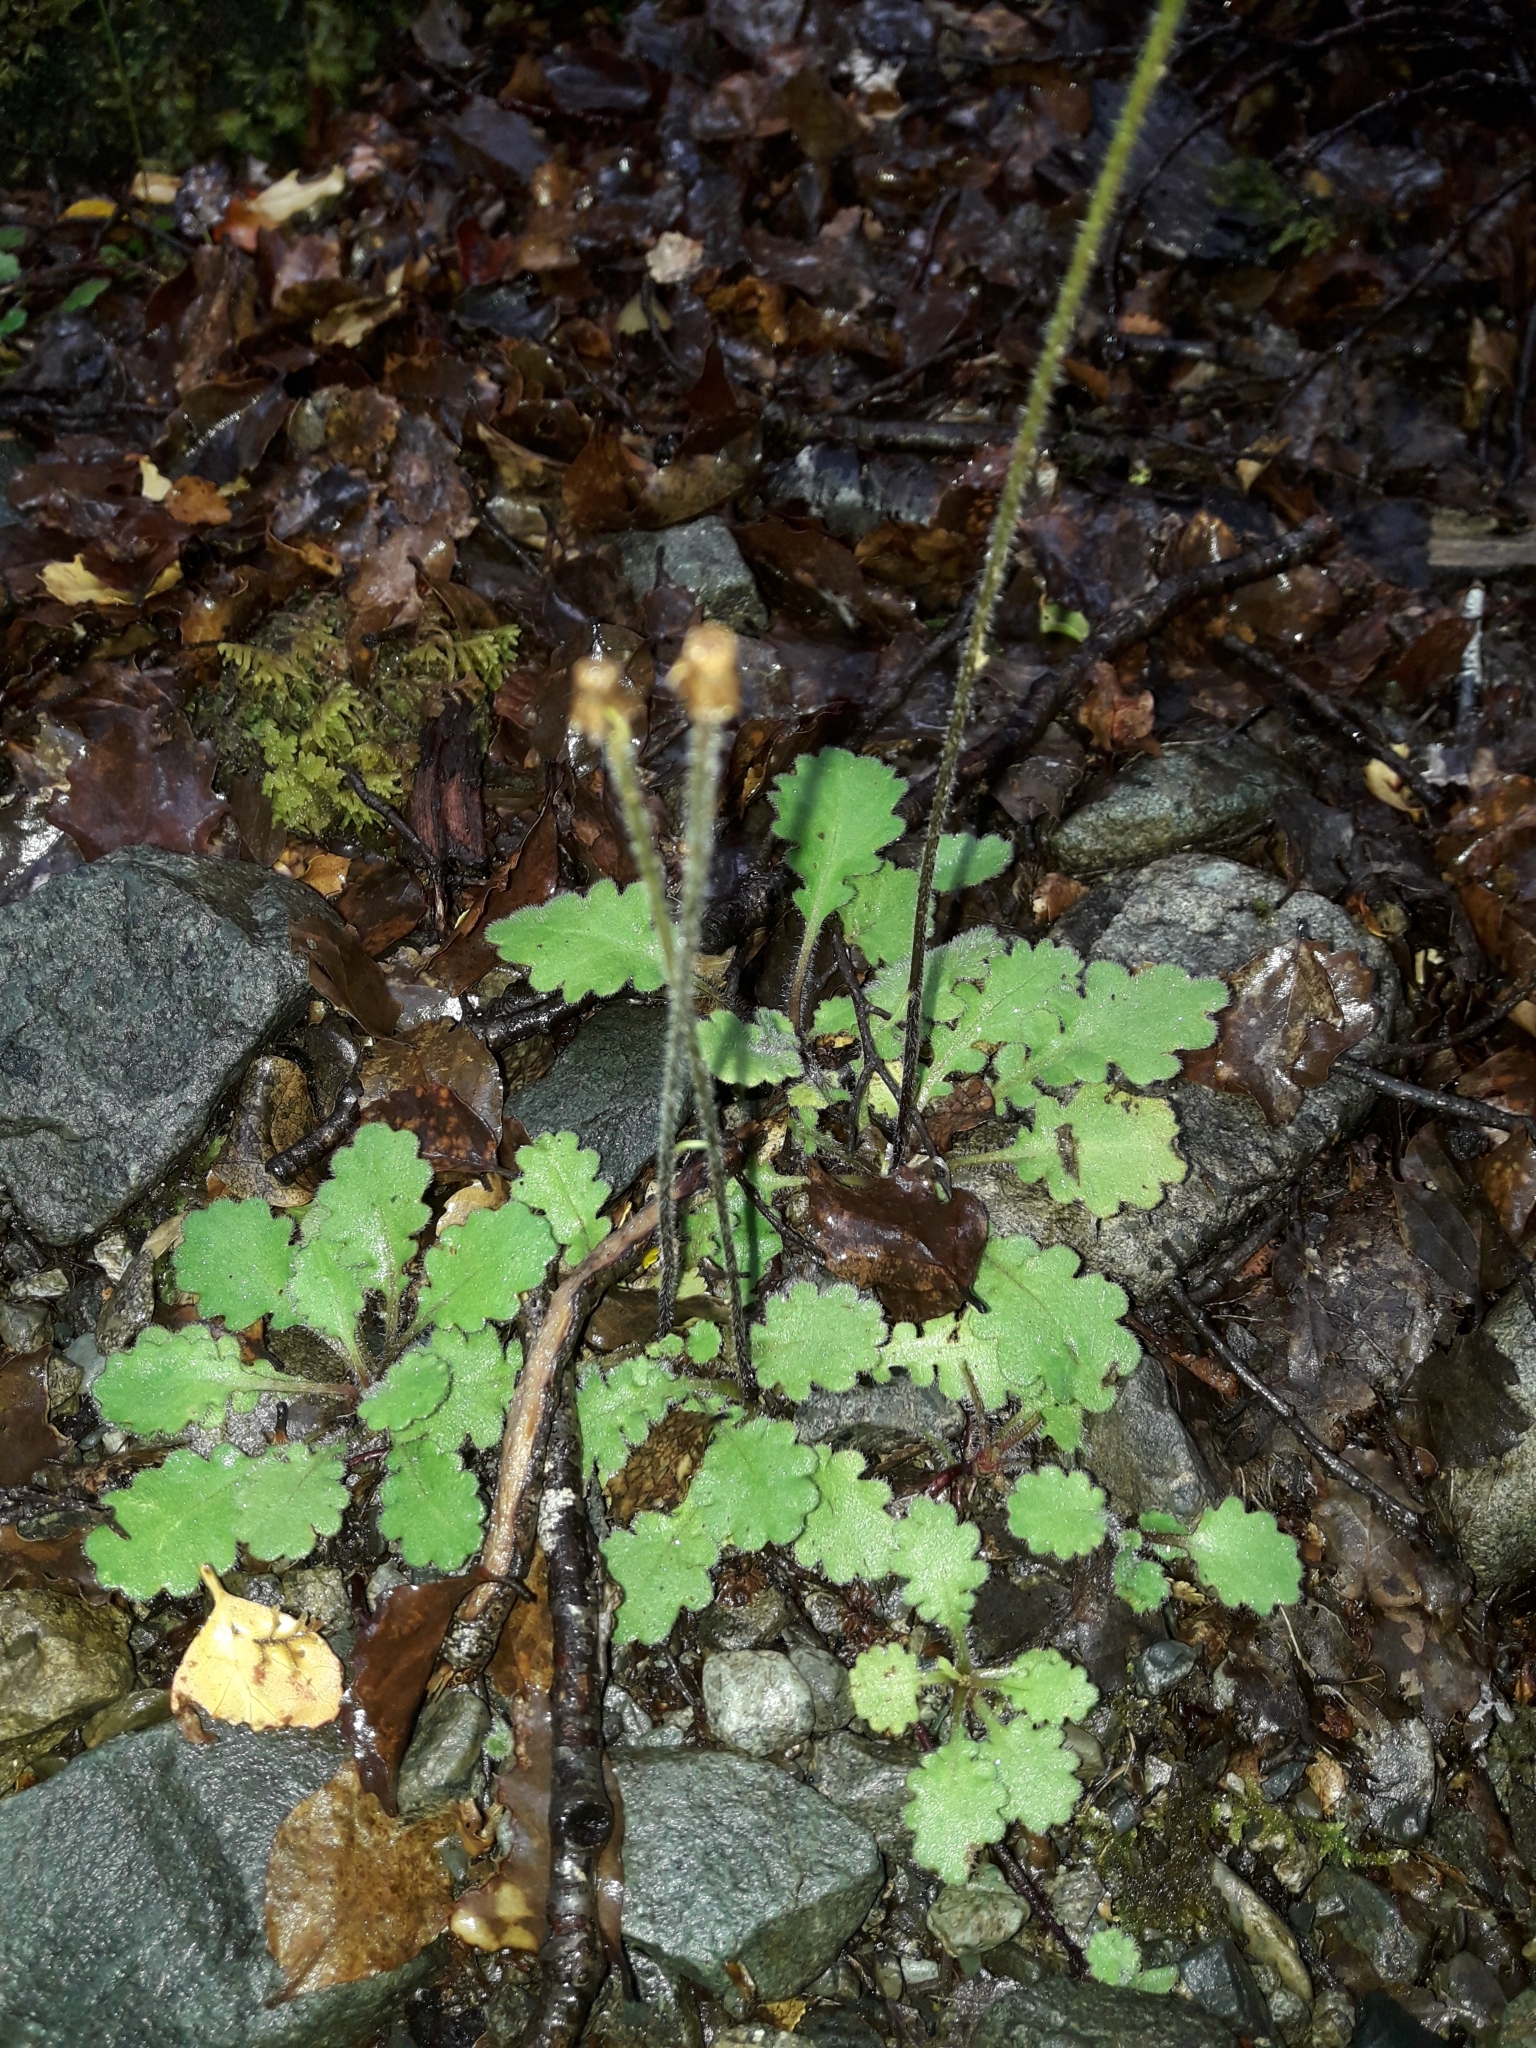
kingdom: Plantae
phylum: Tracheophyta
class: Magnoliopsida
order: Asterales
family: Asteraceae
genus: Lagenophora
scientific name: Lagenophora pinnatifida
